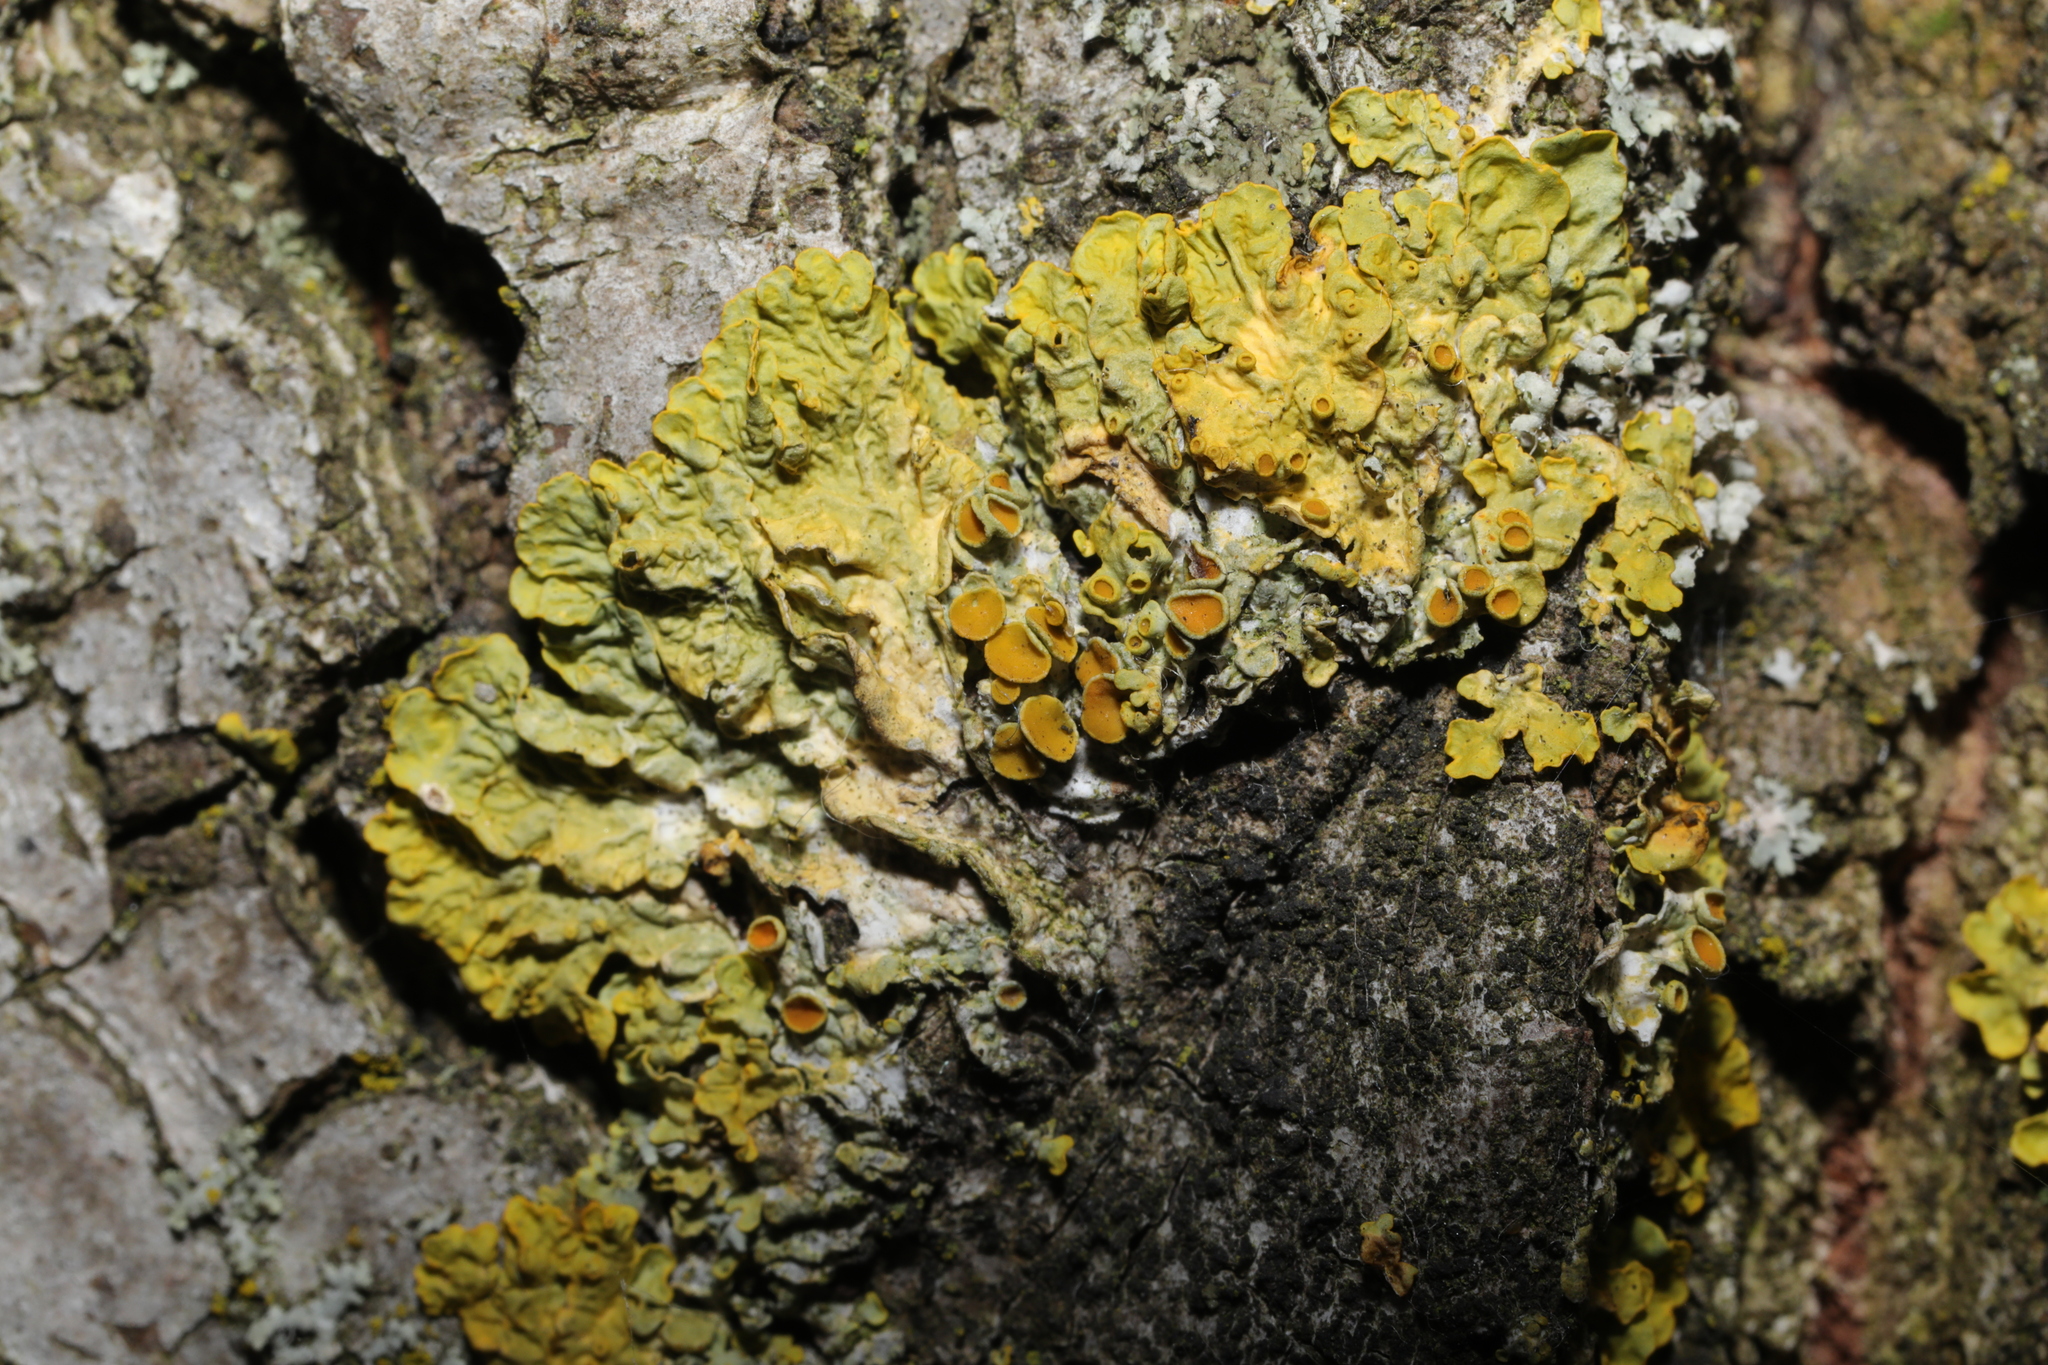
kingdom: Fungi
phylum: Ascomycota
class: Lecanoromycetes
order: Teloschistales
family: Teloschistaceae
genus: Xanthoria
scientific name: Xanthoria parietina
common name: Common orange lichen
